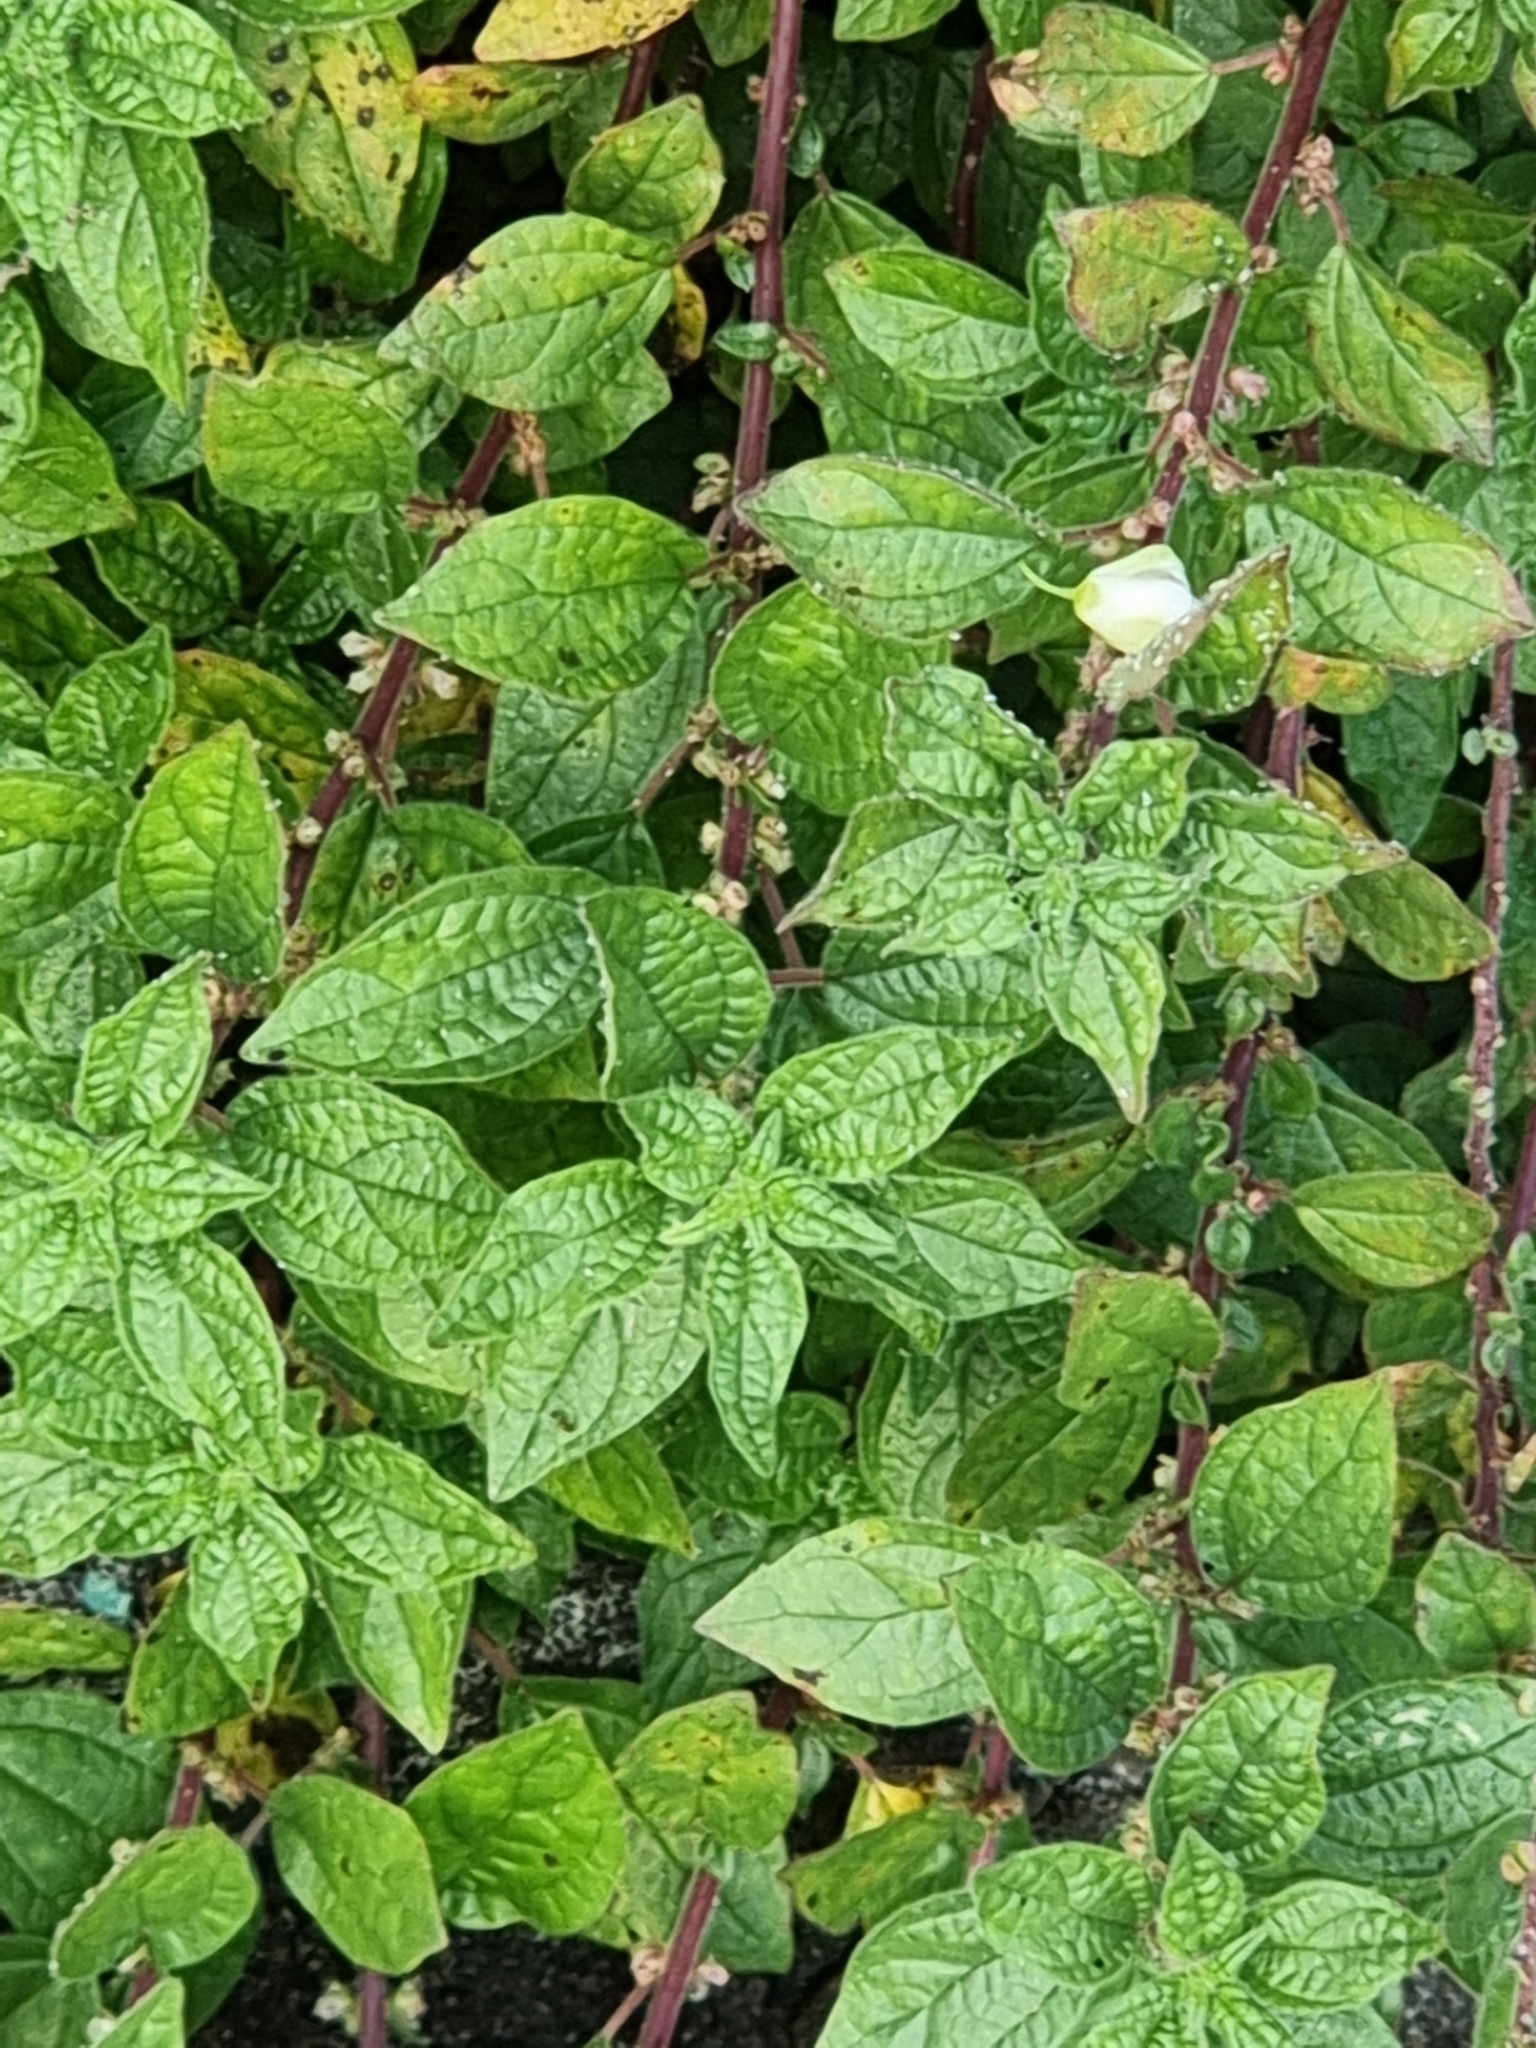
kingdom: Plantae
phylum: Tracheophyta
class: Magnoliopsida
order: Rosales
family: Urticaceae
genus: Parietaria
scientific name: Parietaria judaica
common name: Pellitory-of-the-wall
